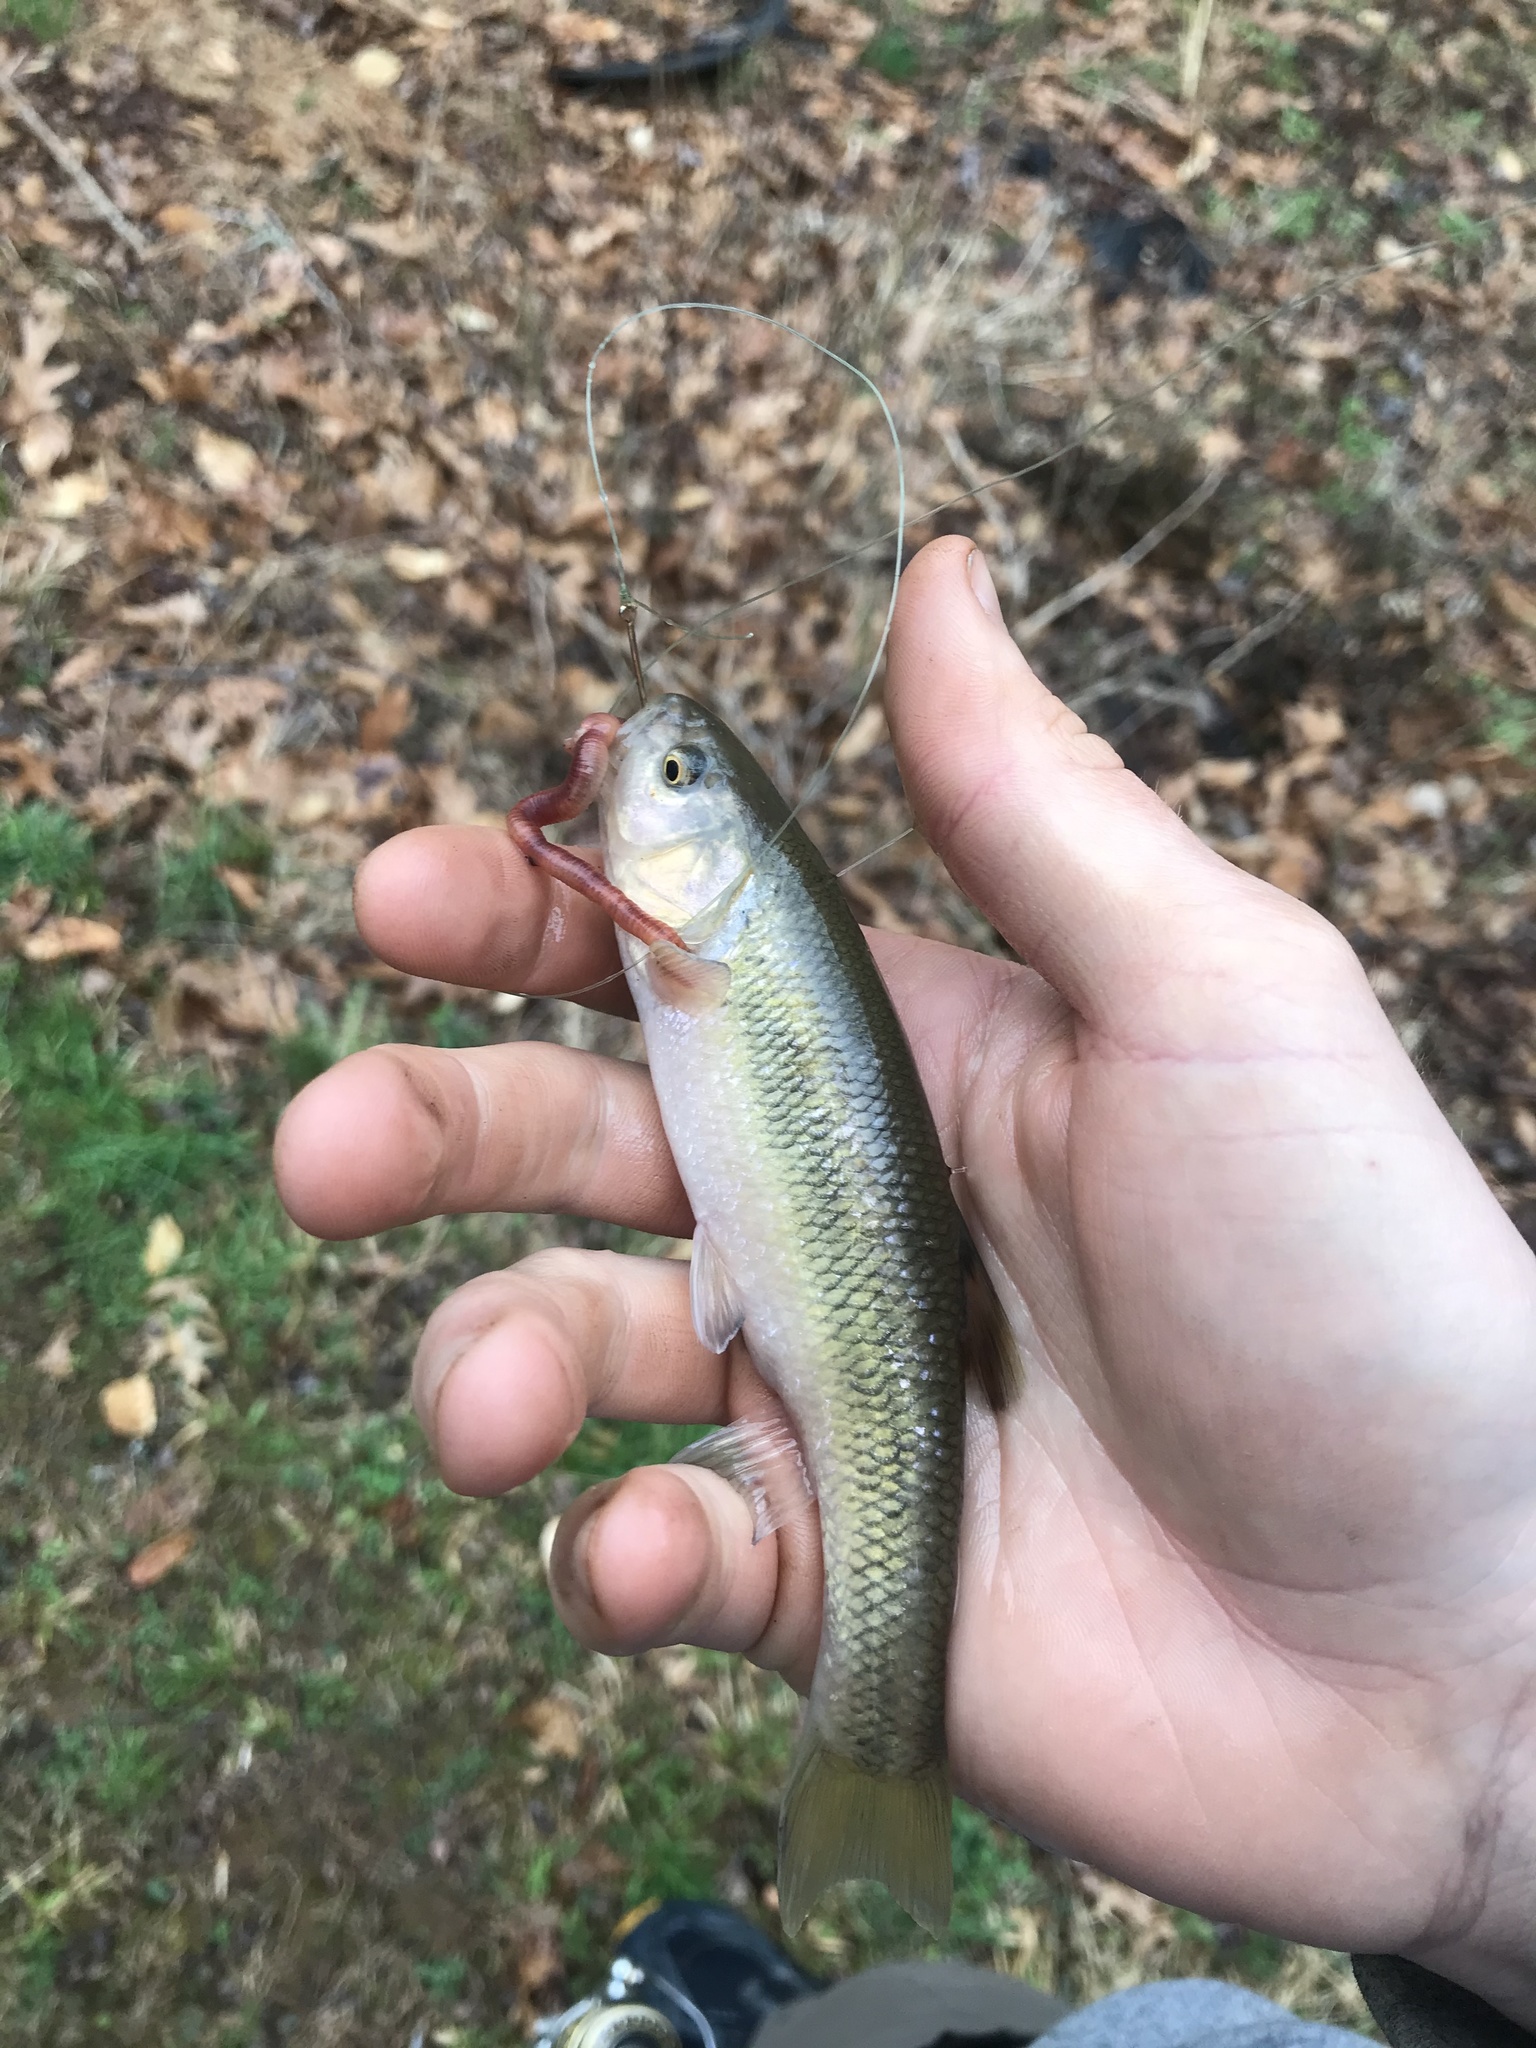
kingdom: Animalia
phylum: Chordata
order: Cypriniformes
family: Cyprinidae
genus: Semotilus
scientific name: Semotilus atromaculatus
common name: Creek chub
